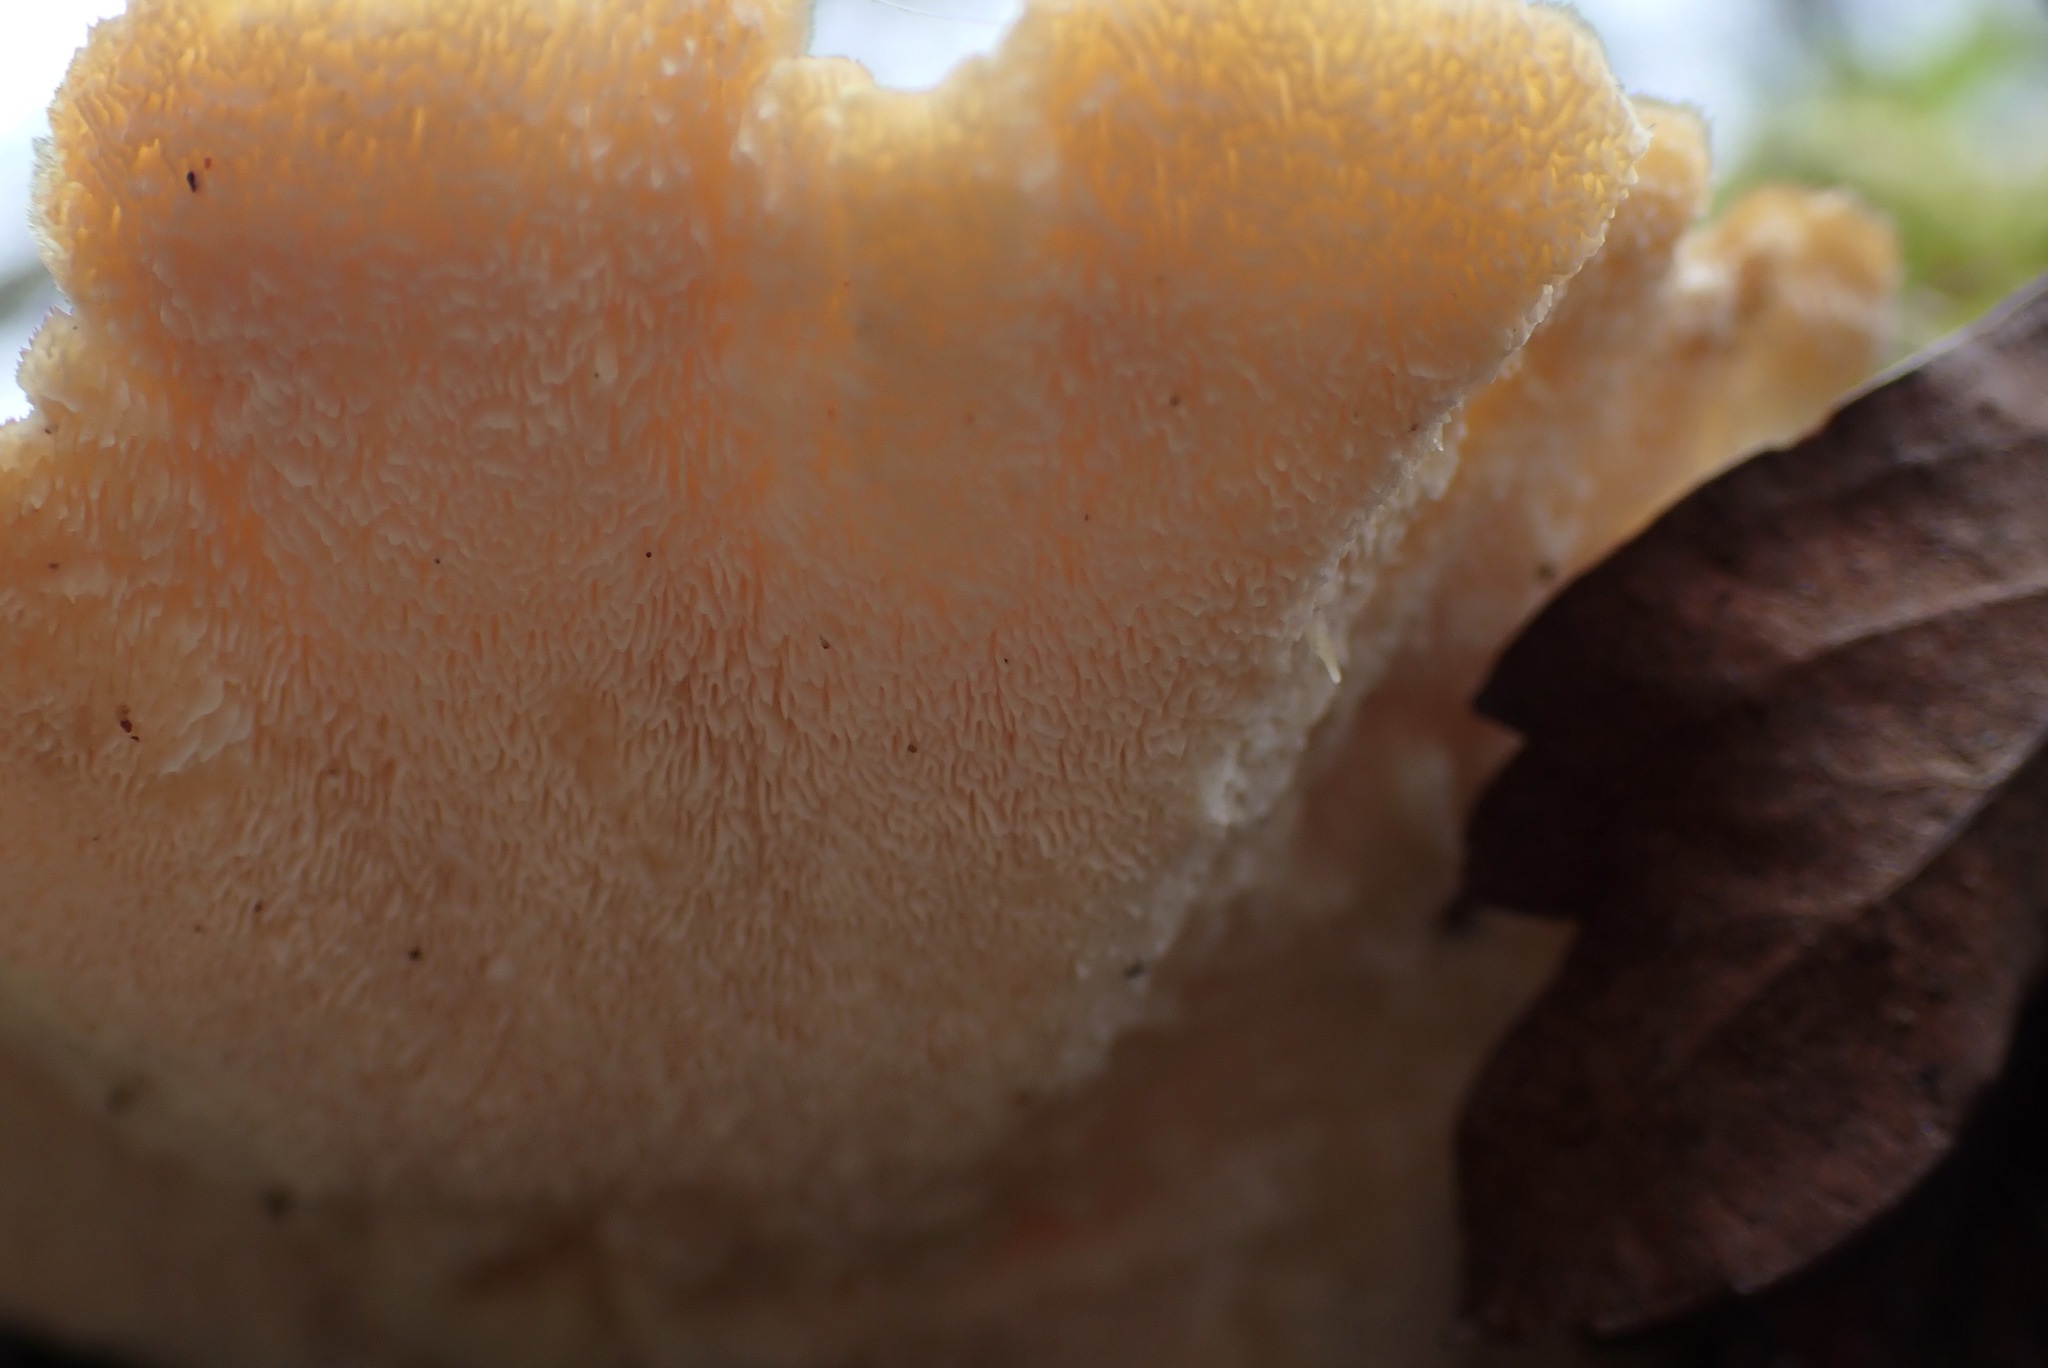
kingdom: Fungi
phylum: Basidiomycota
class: Agaricomycetes
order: Polyporales
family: Polyporaceae
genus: Trametes
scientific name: Trametes versicolor
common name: Turkeytail
